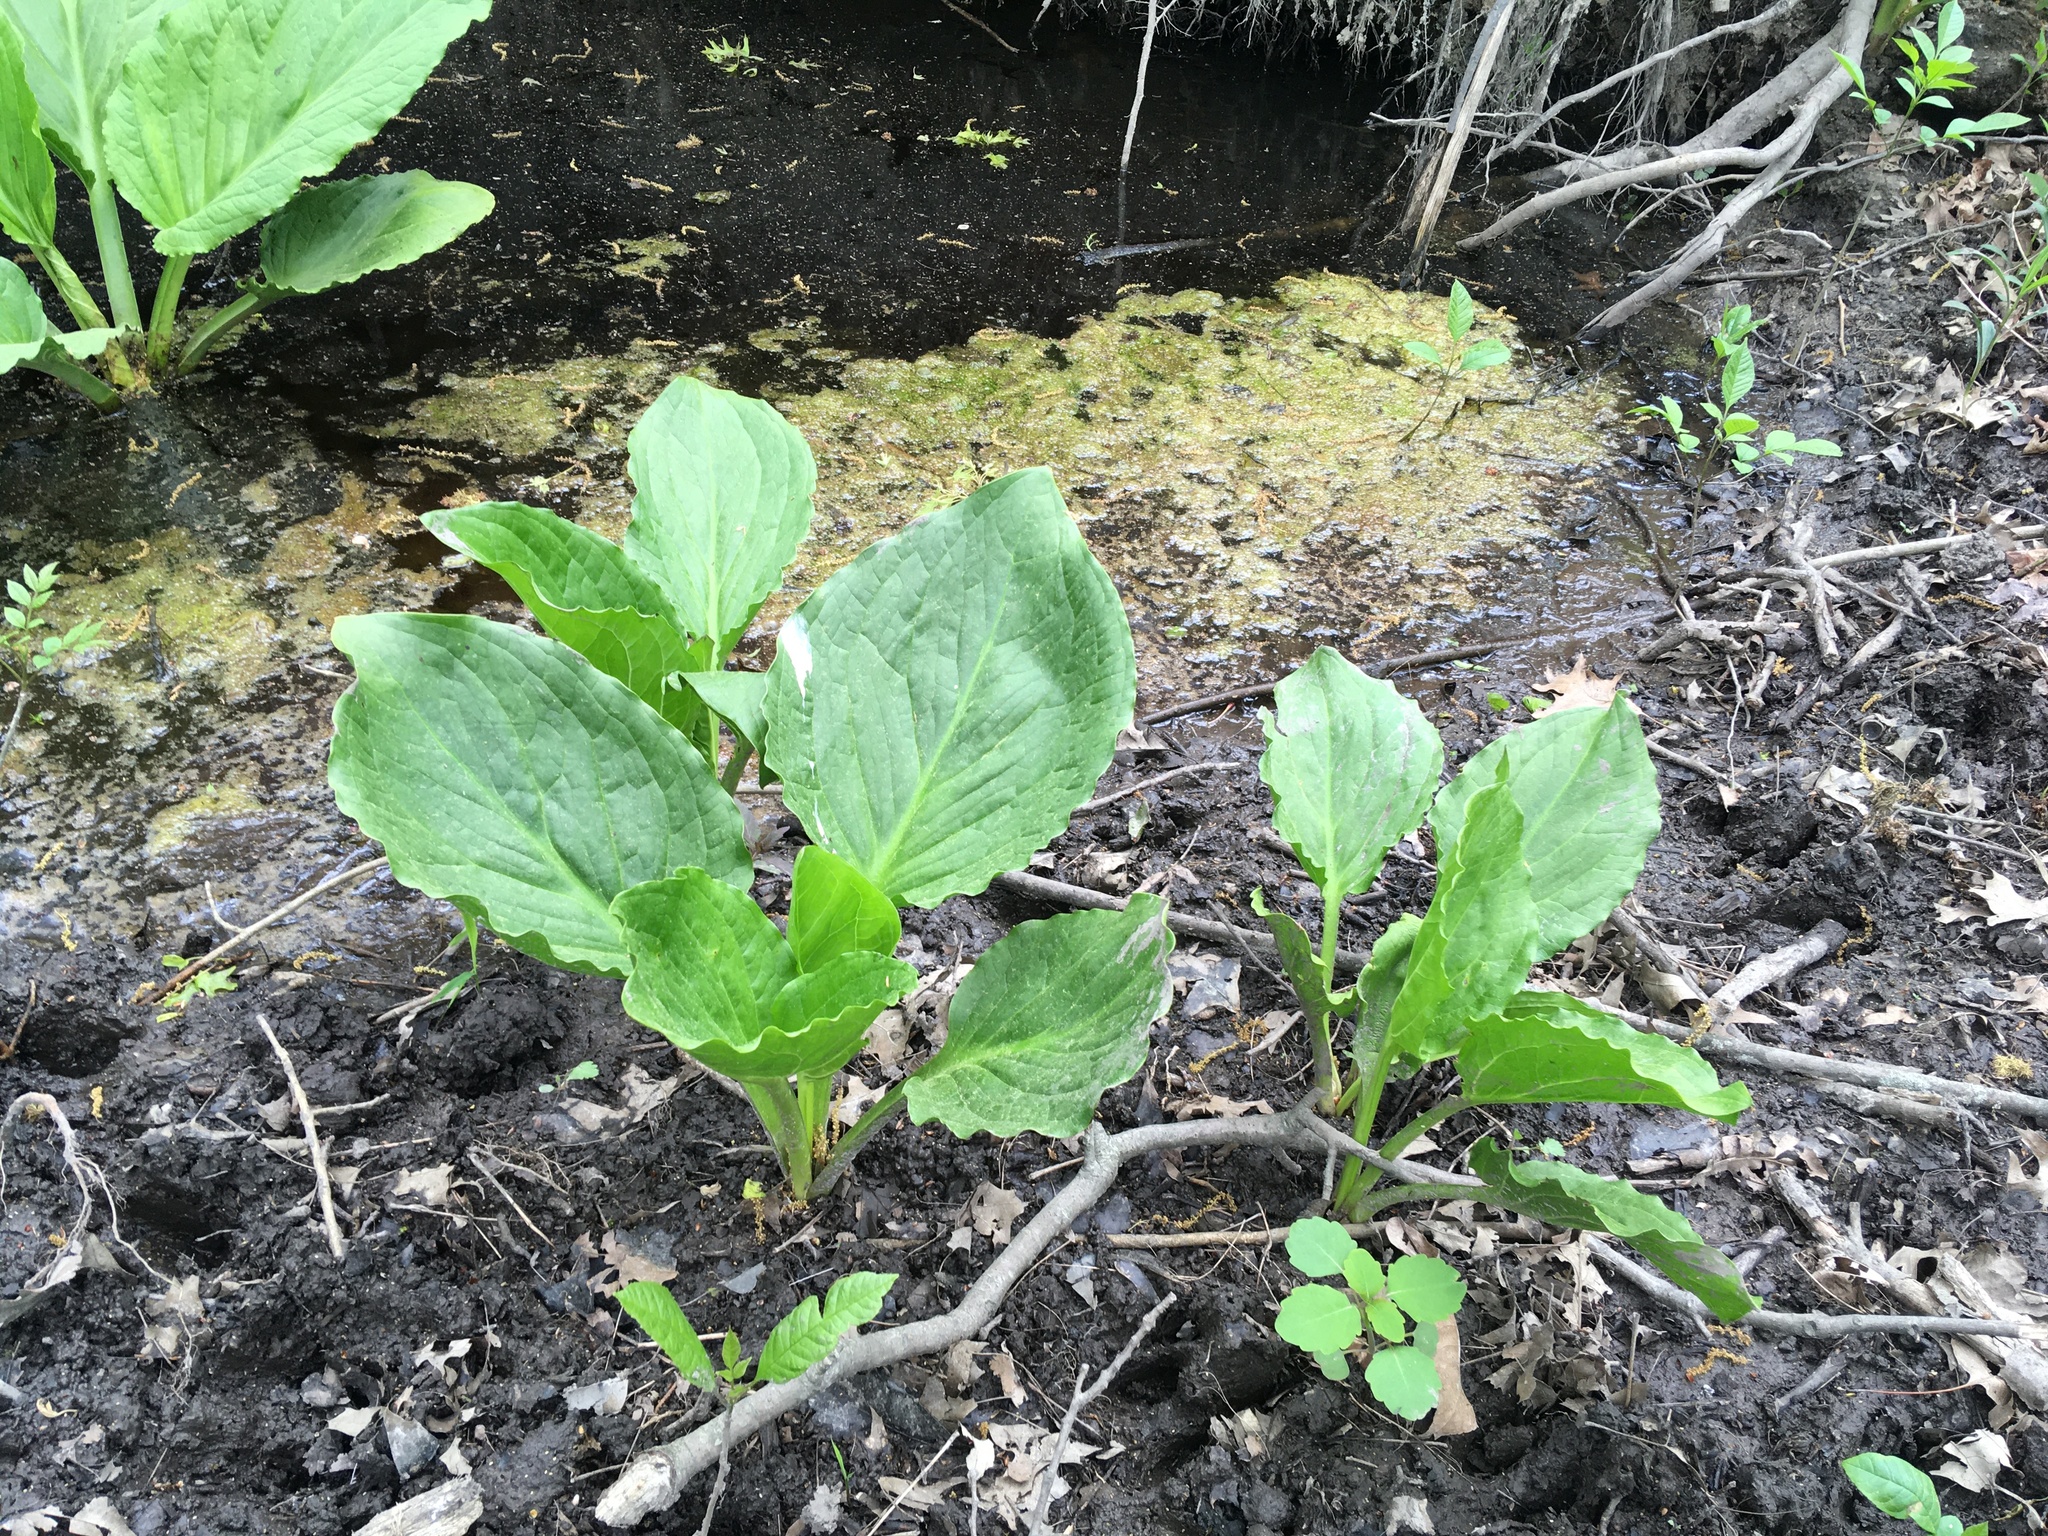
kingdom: Plantae
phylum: Tracheophyta
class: Liliopsida
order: Alismatales
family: Araceae
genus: Symplocarpus
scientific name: Symplocarpus foetidus
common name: Eastern skunk cabbage
